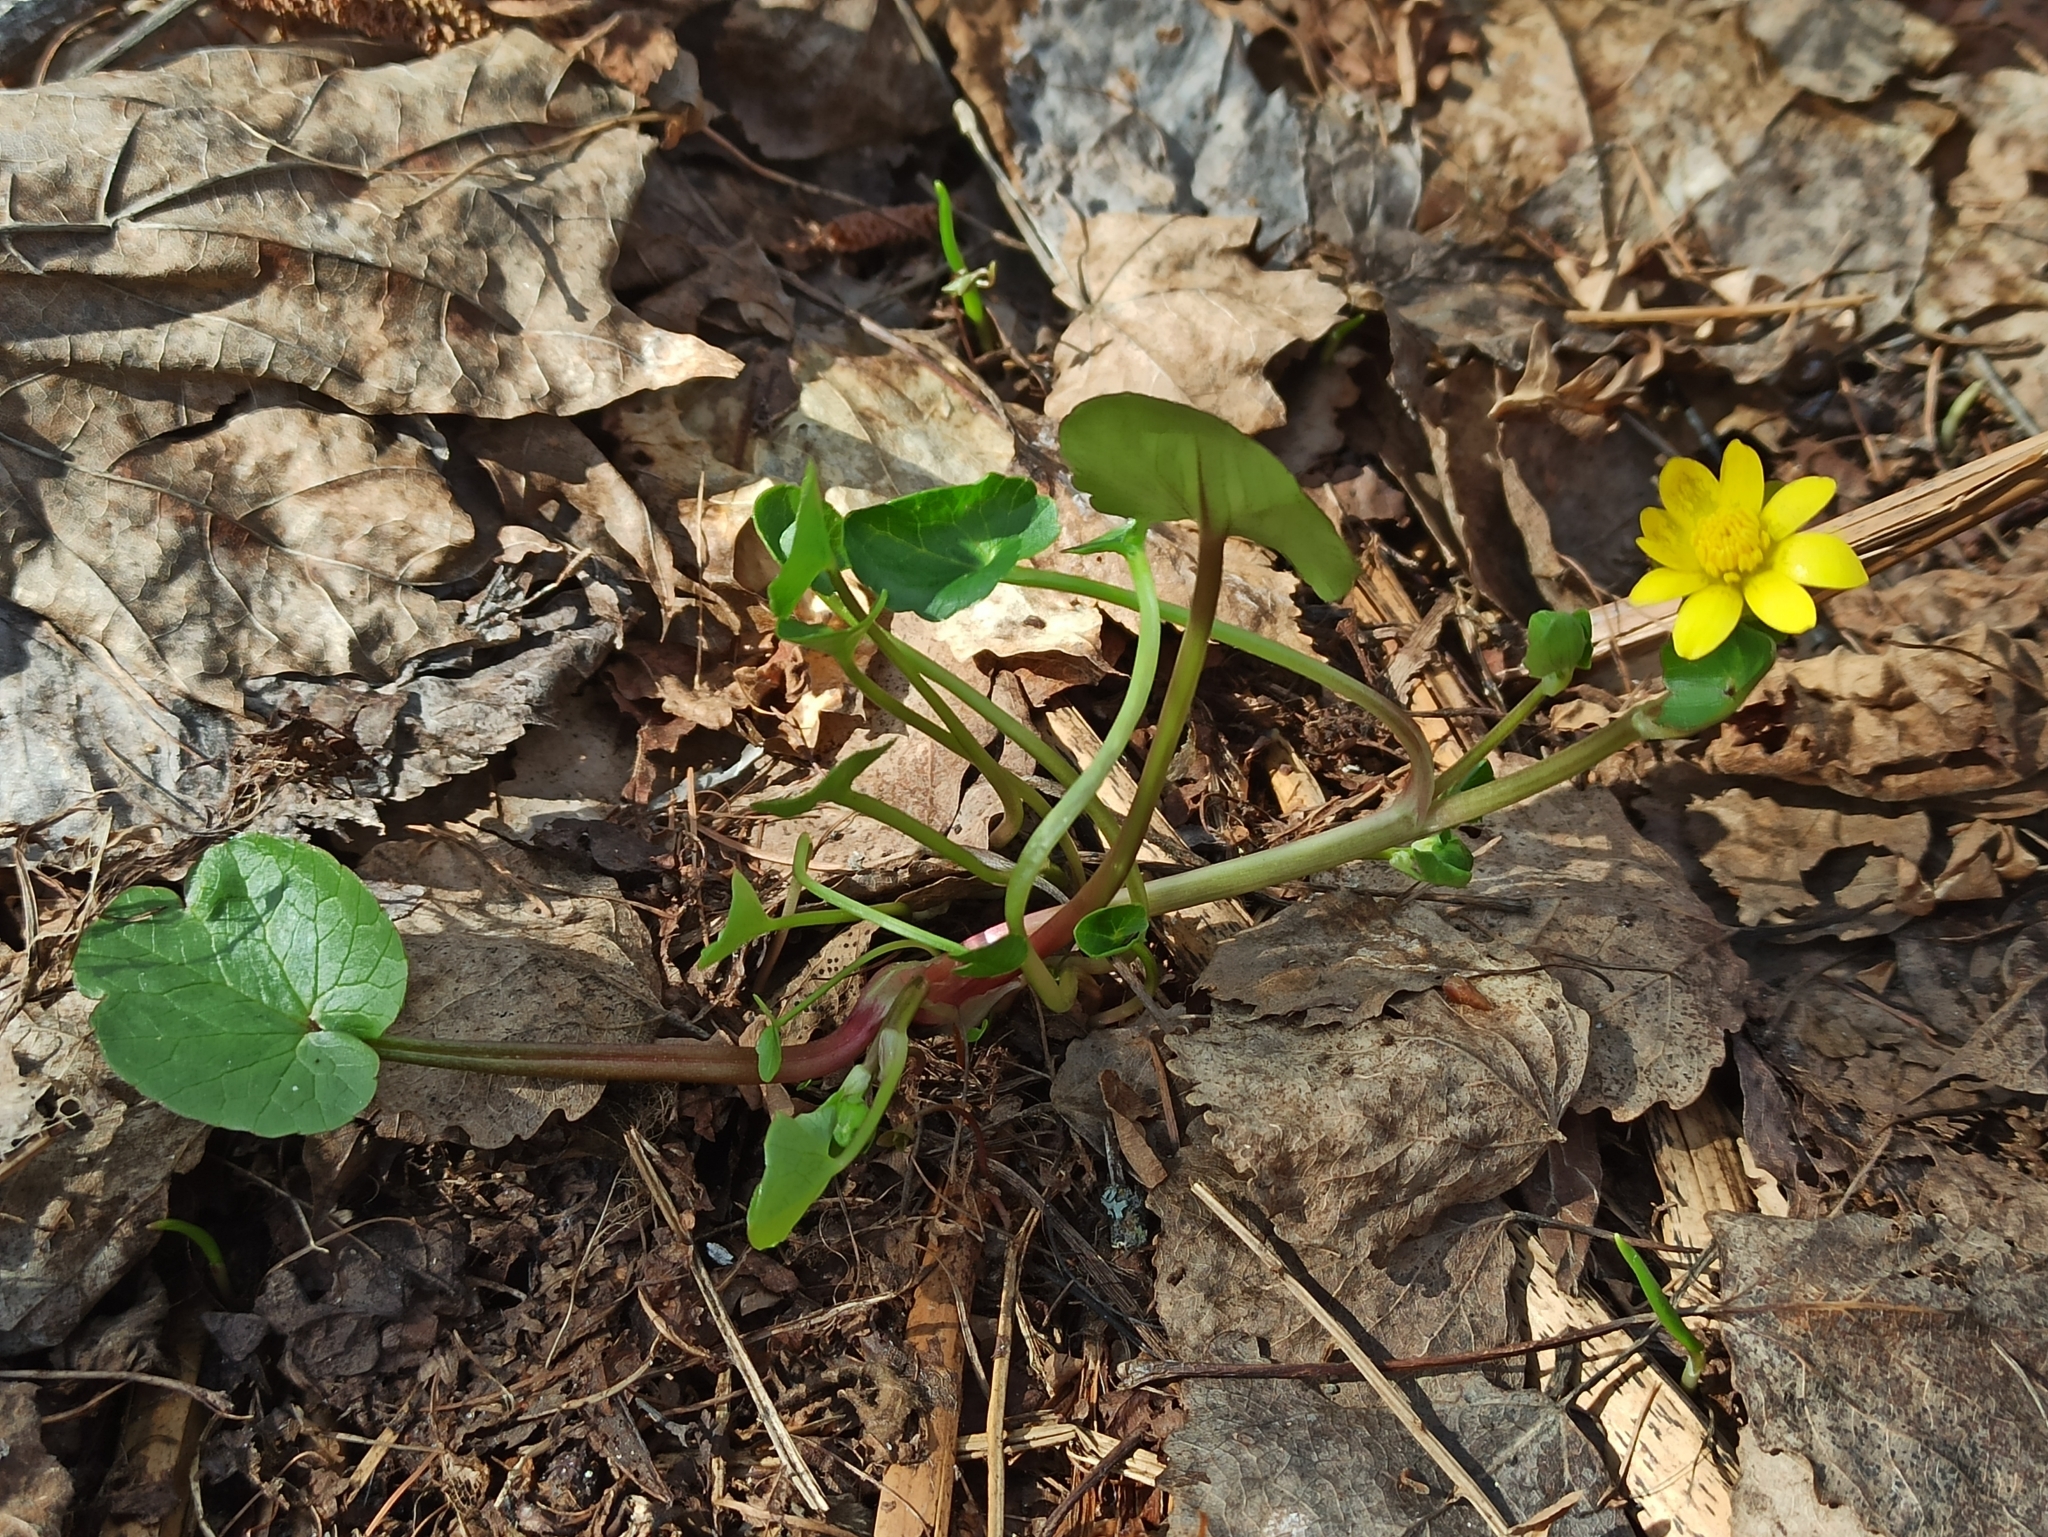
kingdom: Plantae
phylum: Tracheophyta
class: Magnoliopsida
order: Ranunculales
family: Ranunculaceae
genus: Ficaria
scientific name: Ficaria verna
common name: Lesser celandine
